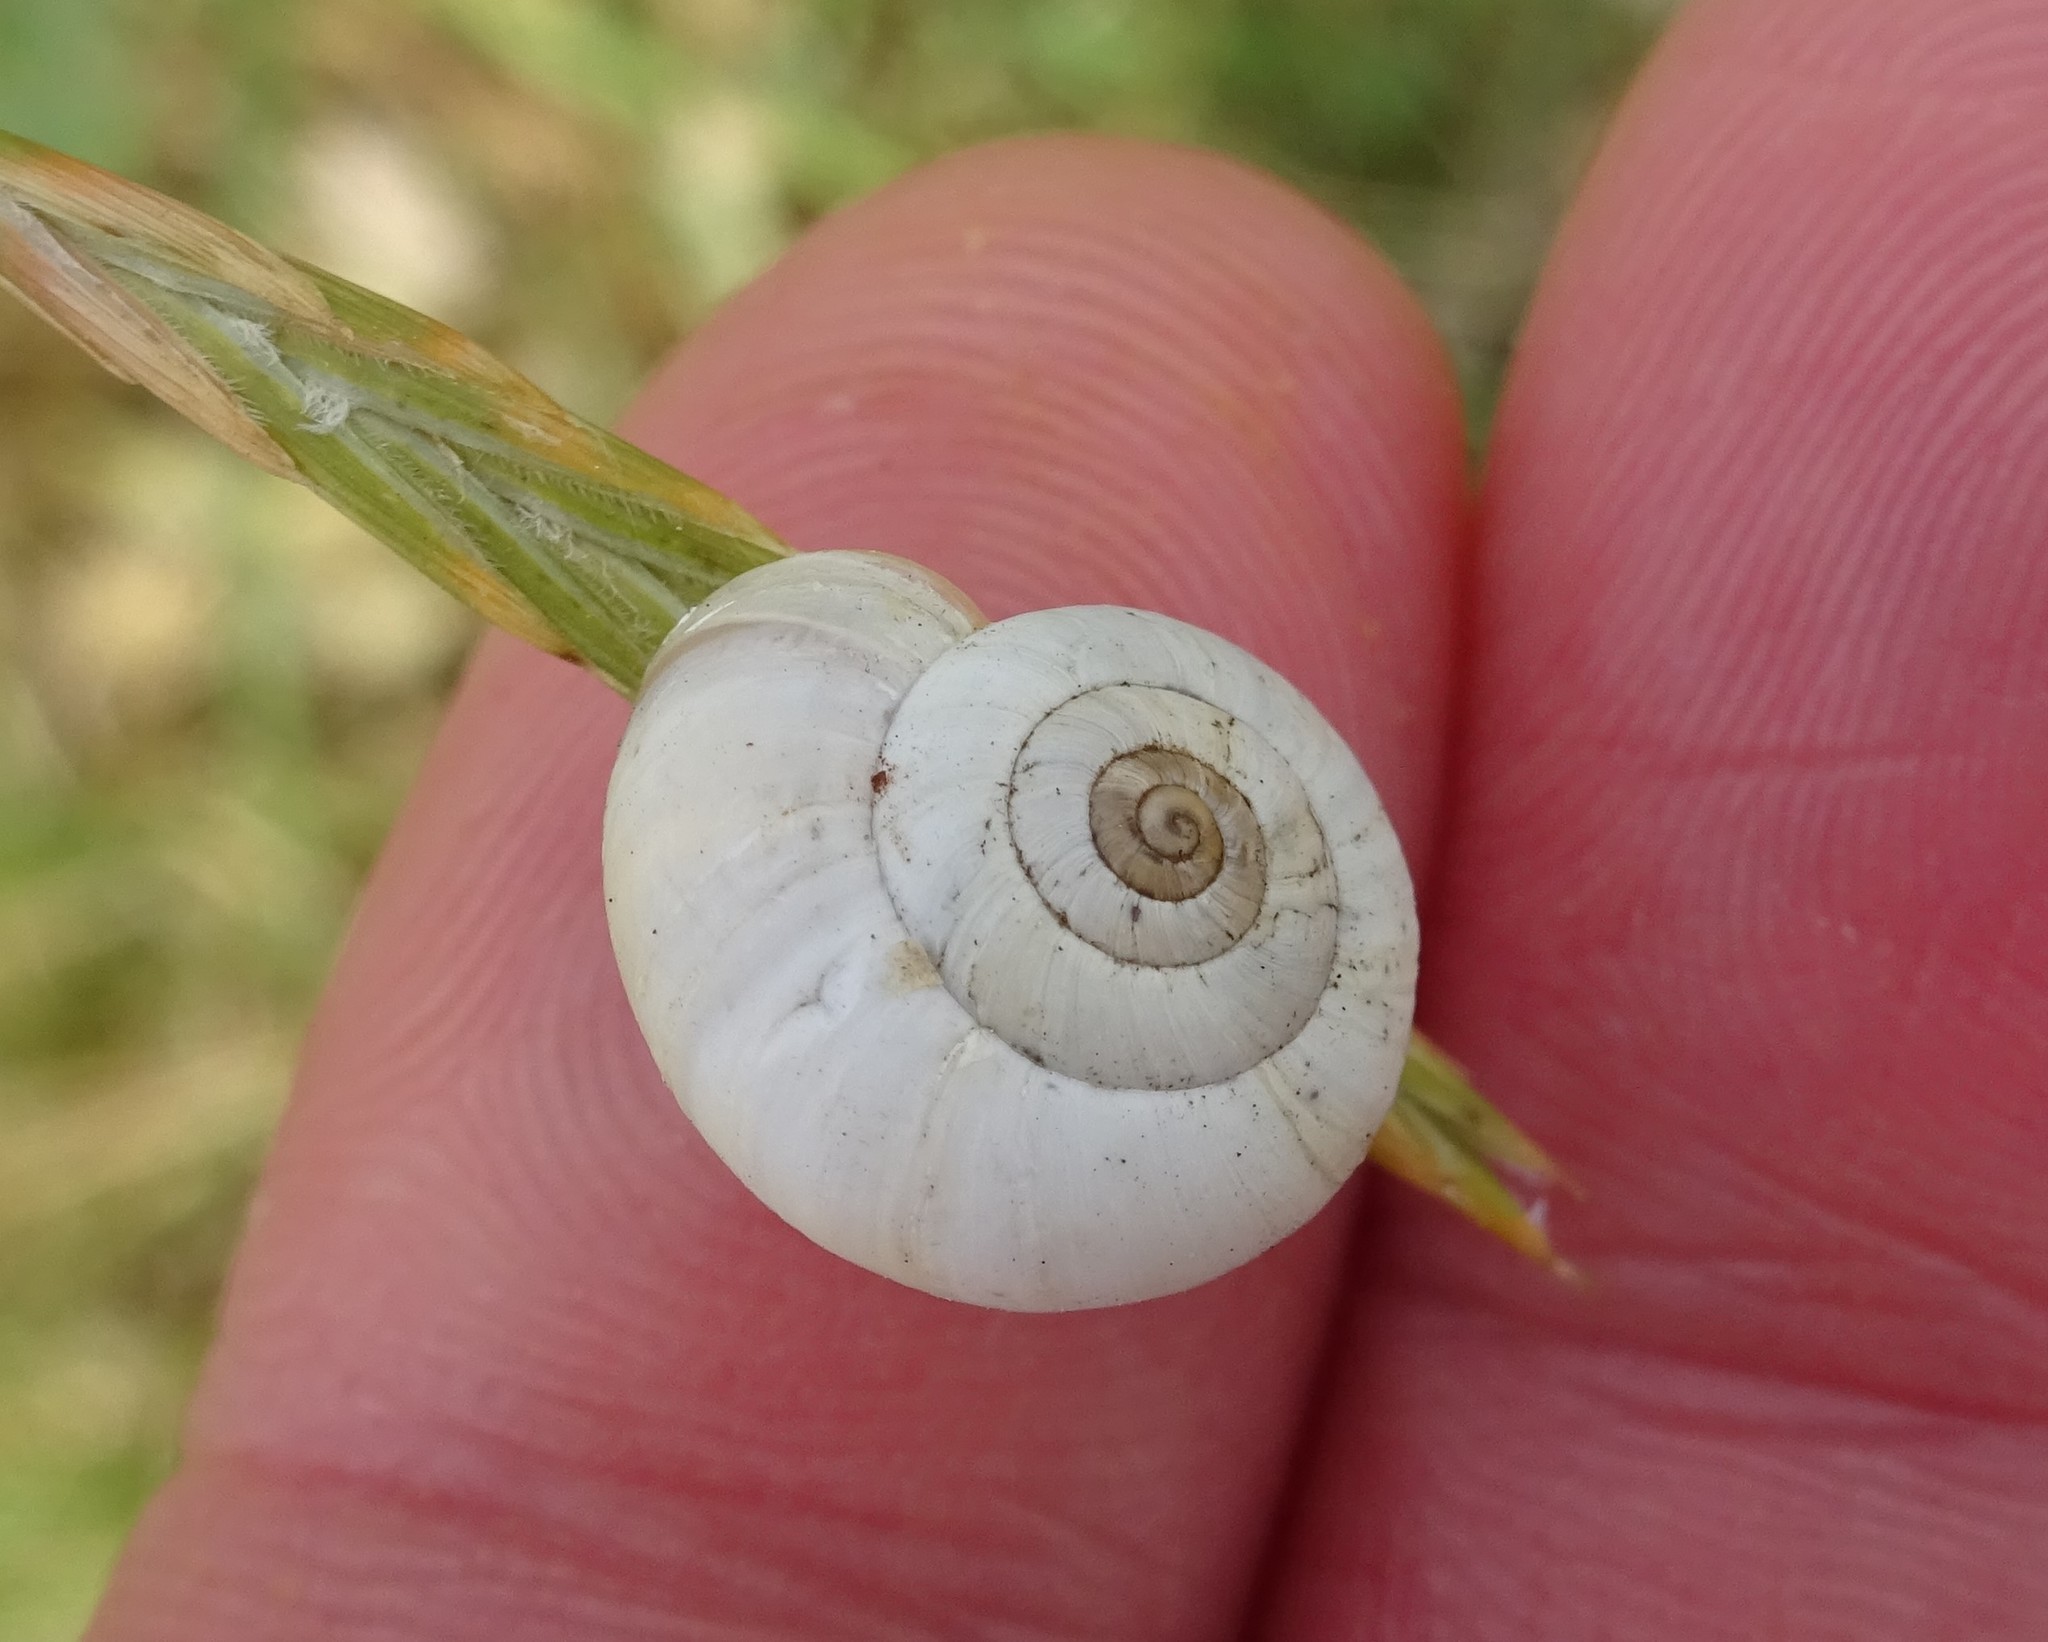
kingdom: Animalia
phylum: Mollusca
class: Gastropoda
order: Stylommatophora
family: Geomitridae
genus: Xeropicta
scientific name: Xeropicta derbentina
